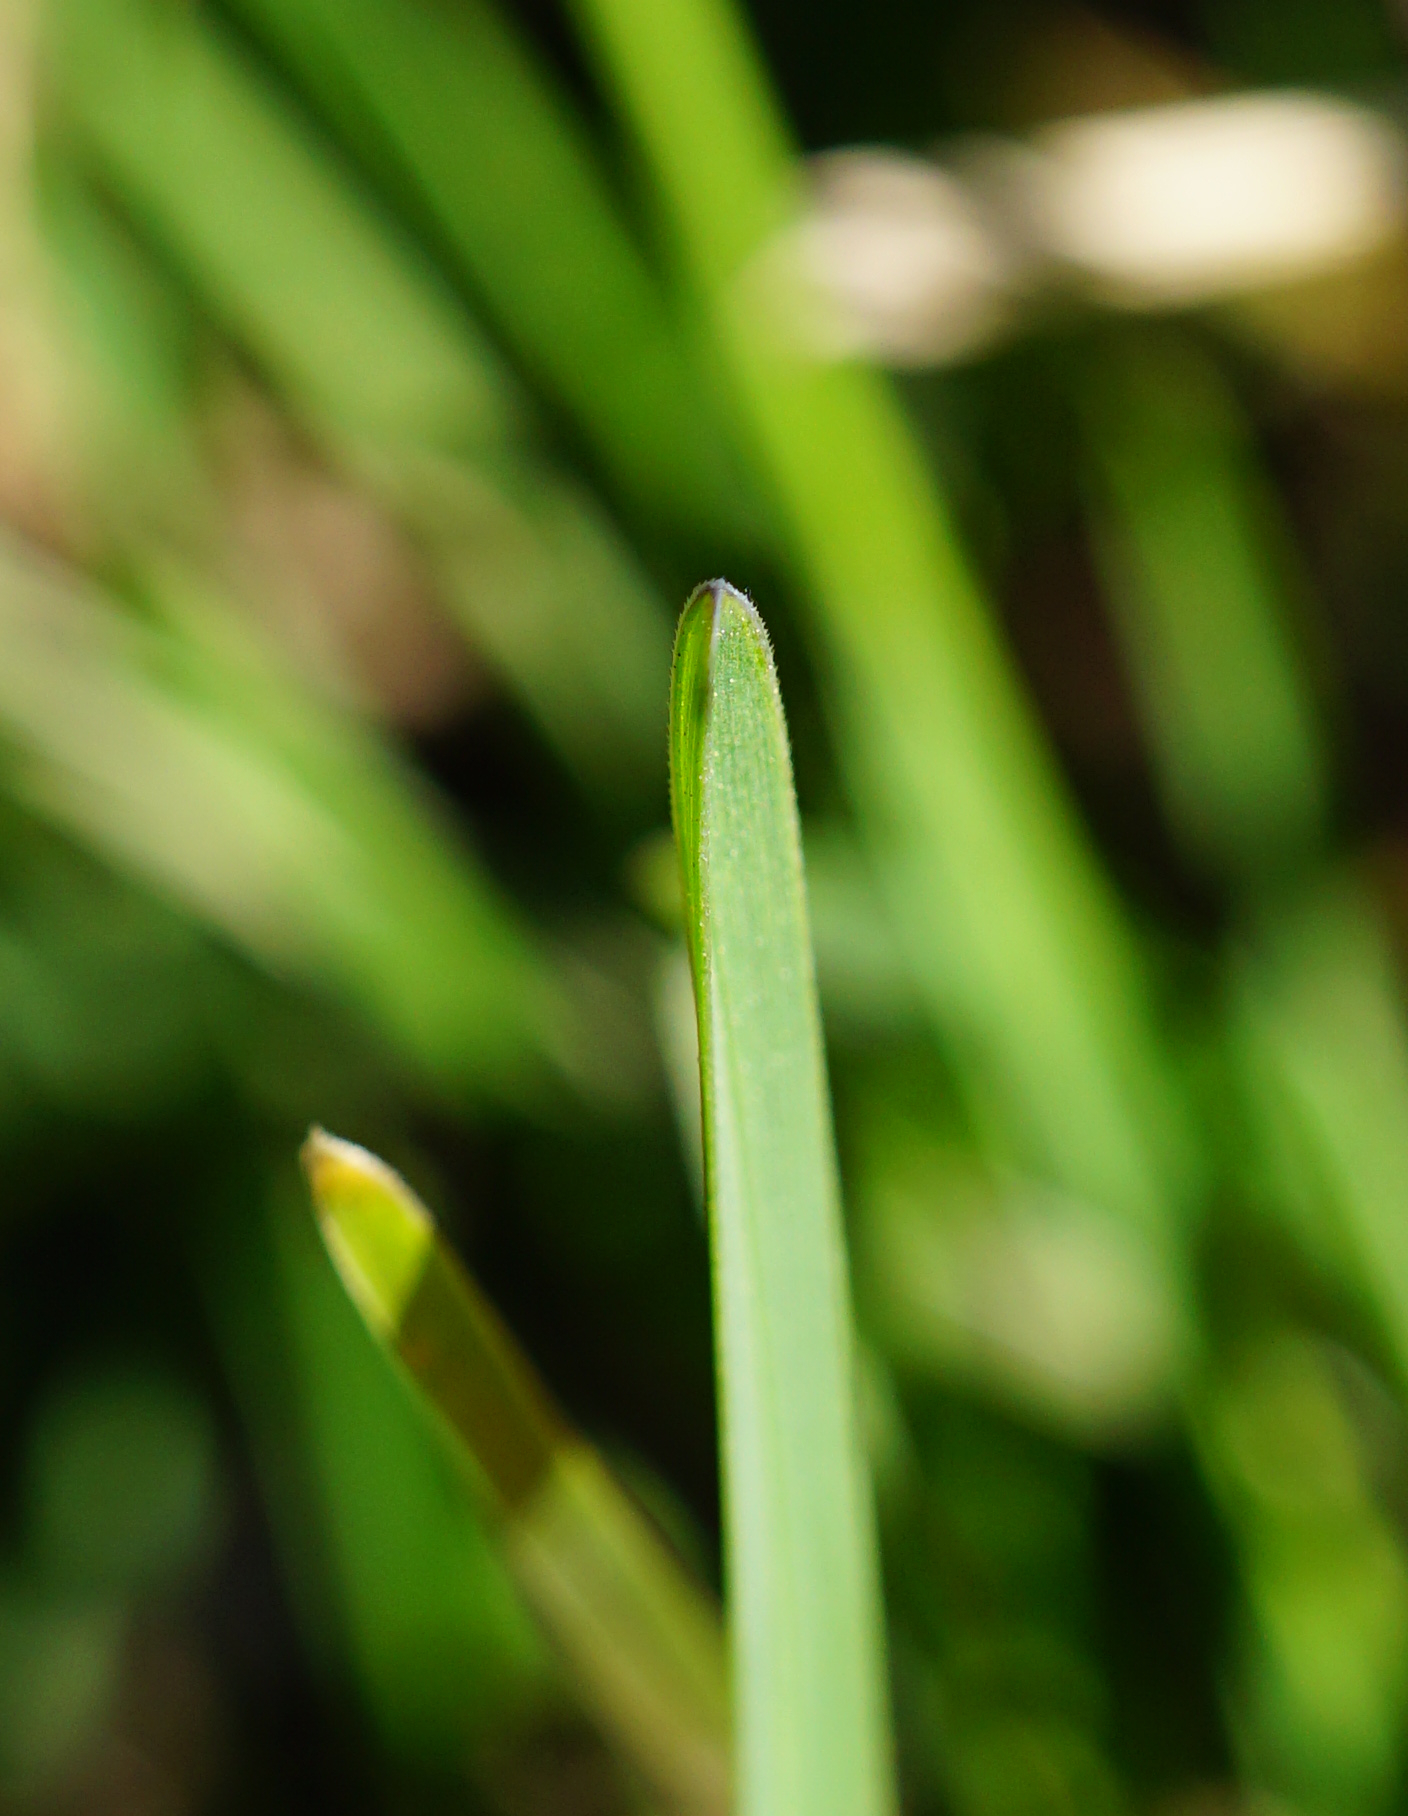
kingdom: Plantae
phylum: Tracheophyta
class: Liliopsida
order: Poales
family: Poaceae
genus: Sesleria
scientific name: Sesleria caerulea
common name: Blue moor-grass
